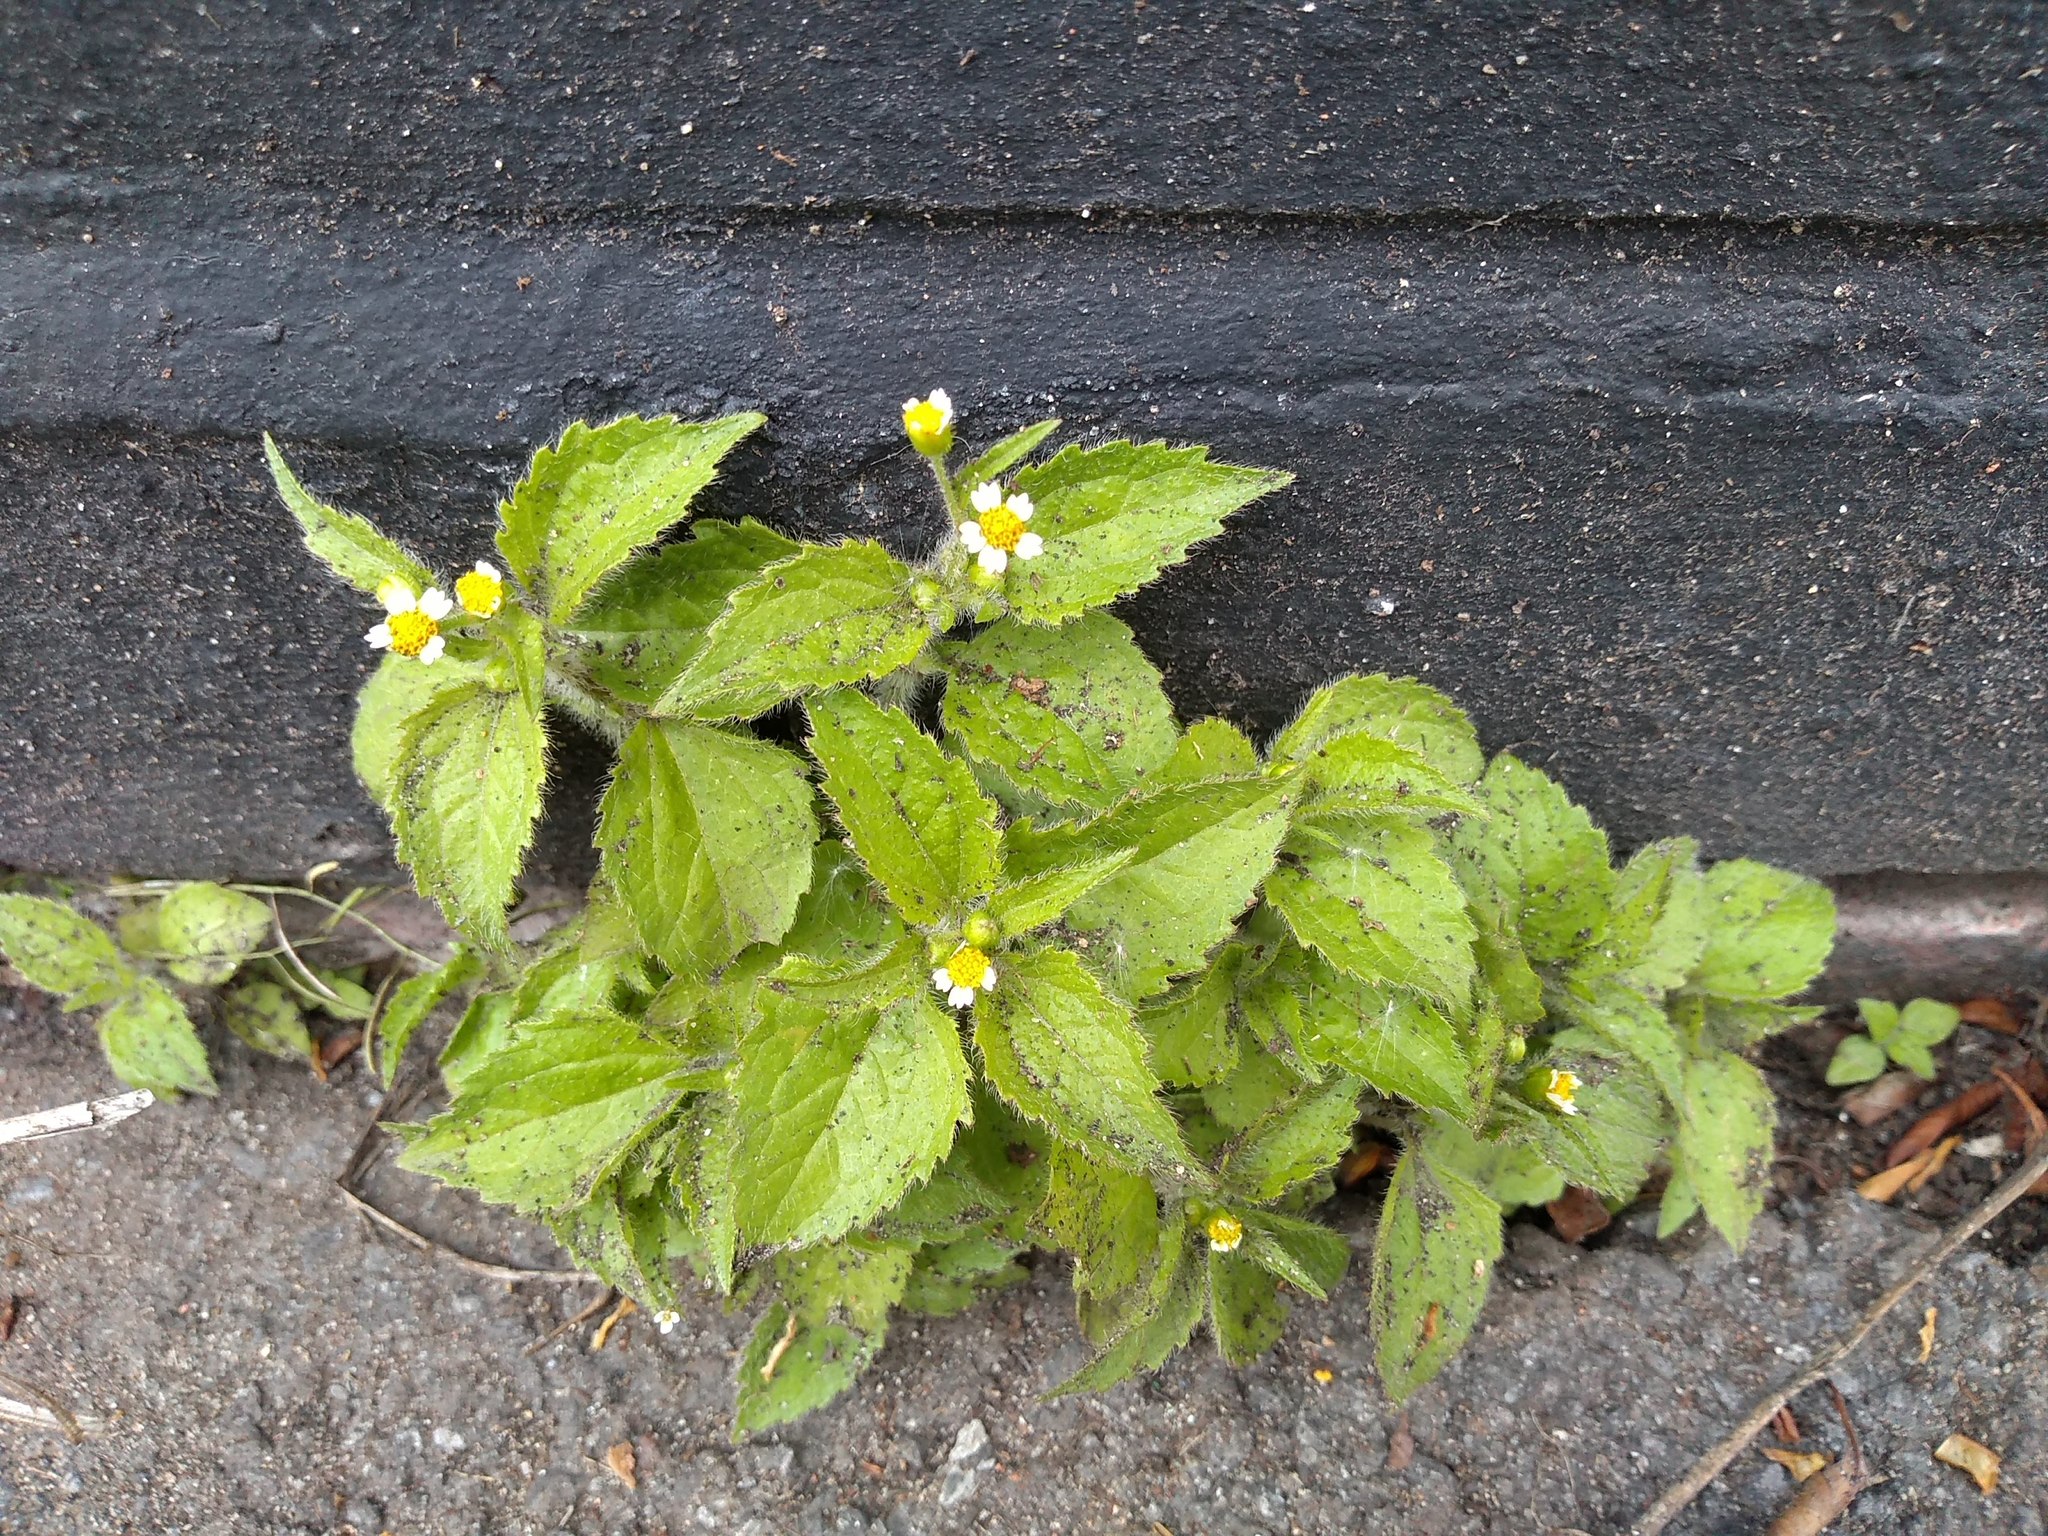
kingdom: Plantae
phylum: Tracheophyta
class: Magnoliopsida
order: Asterales
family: Asteraceae
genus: Galinsoga
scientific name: Galinsoga quadriradiata
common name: Shaggy soldier
